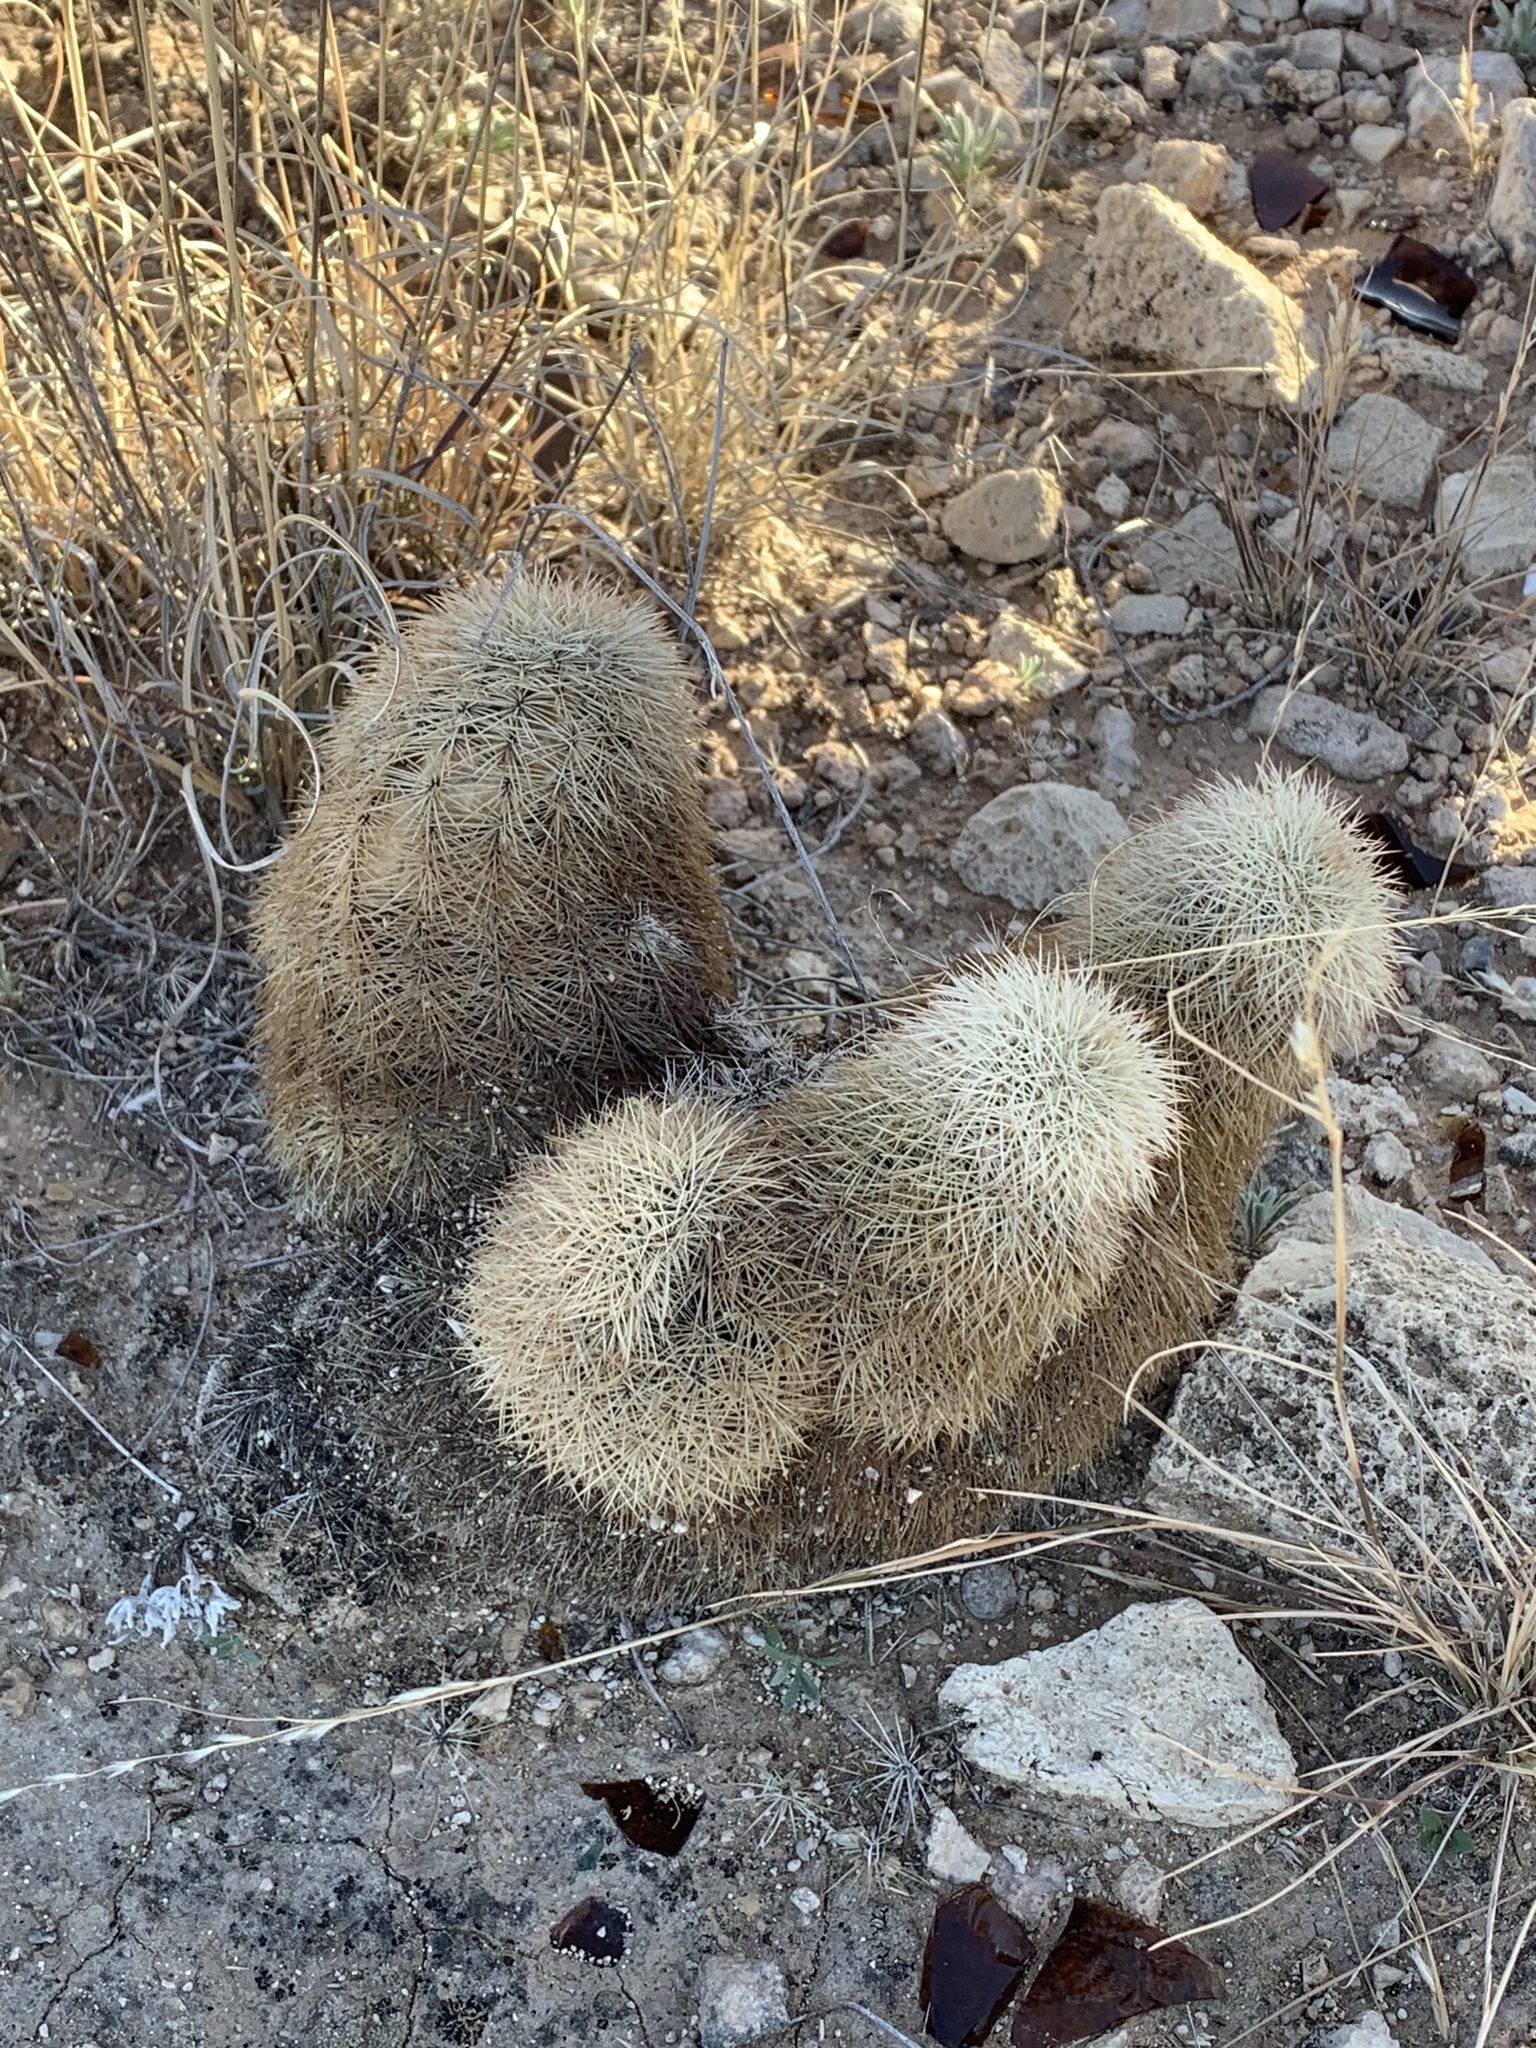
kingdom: Plantae
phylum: Tracheophyta
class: Magnoliopsida
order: Caryophyllales
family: Cactaceae
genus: Echinocereus
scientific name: Echinocereus dasyacanthus
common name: Spiny hedgehog cactus
